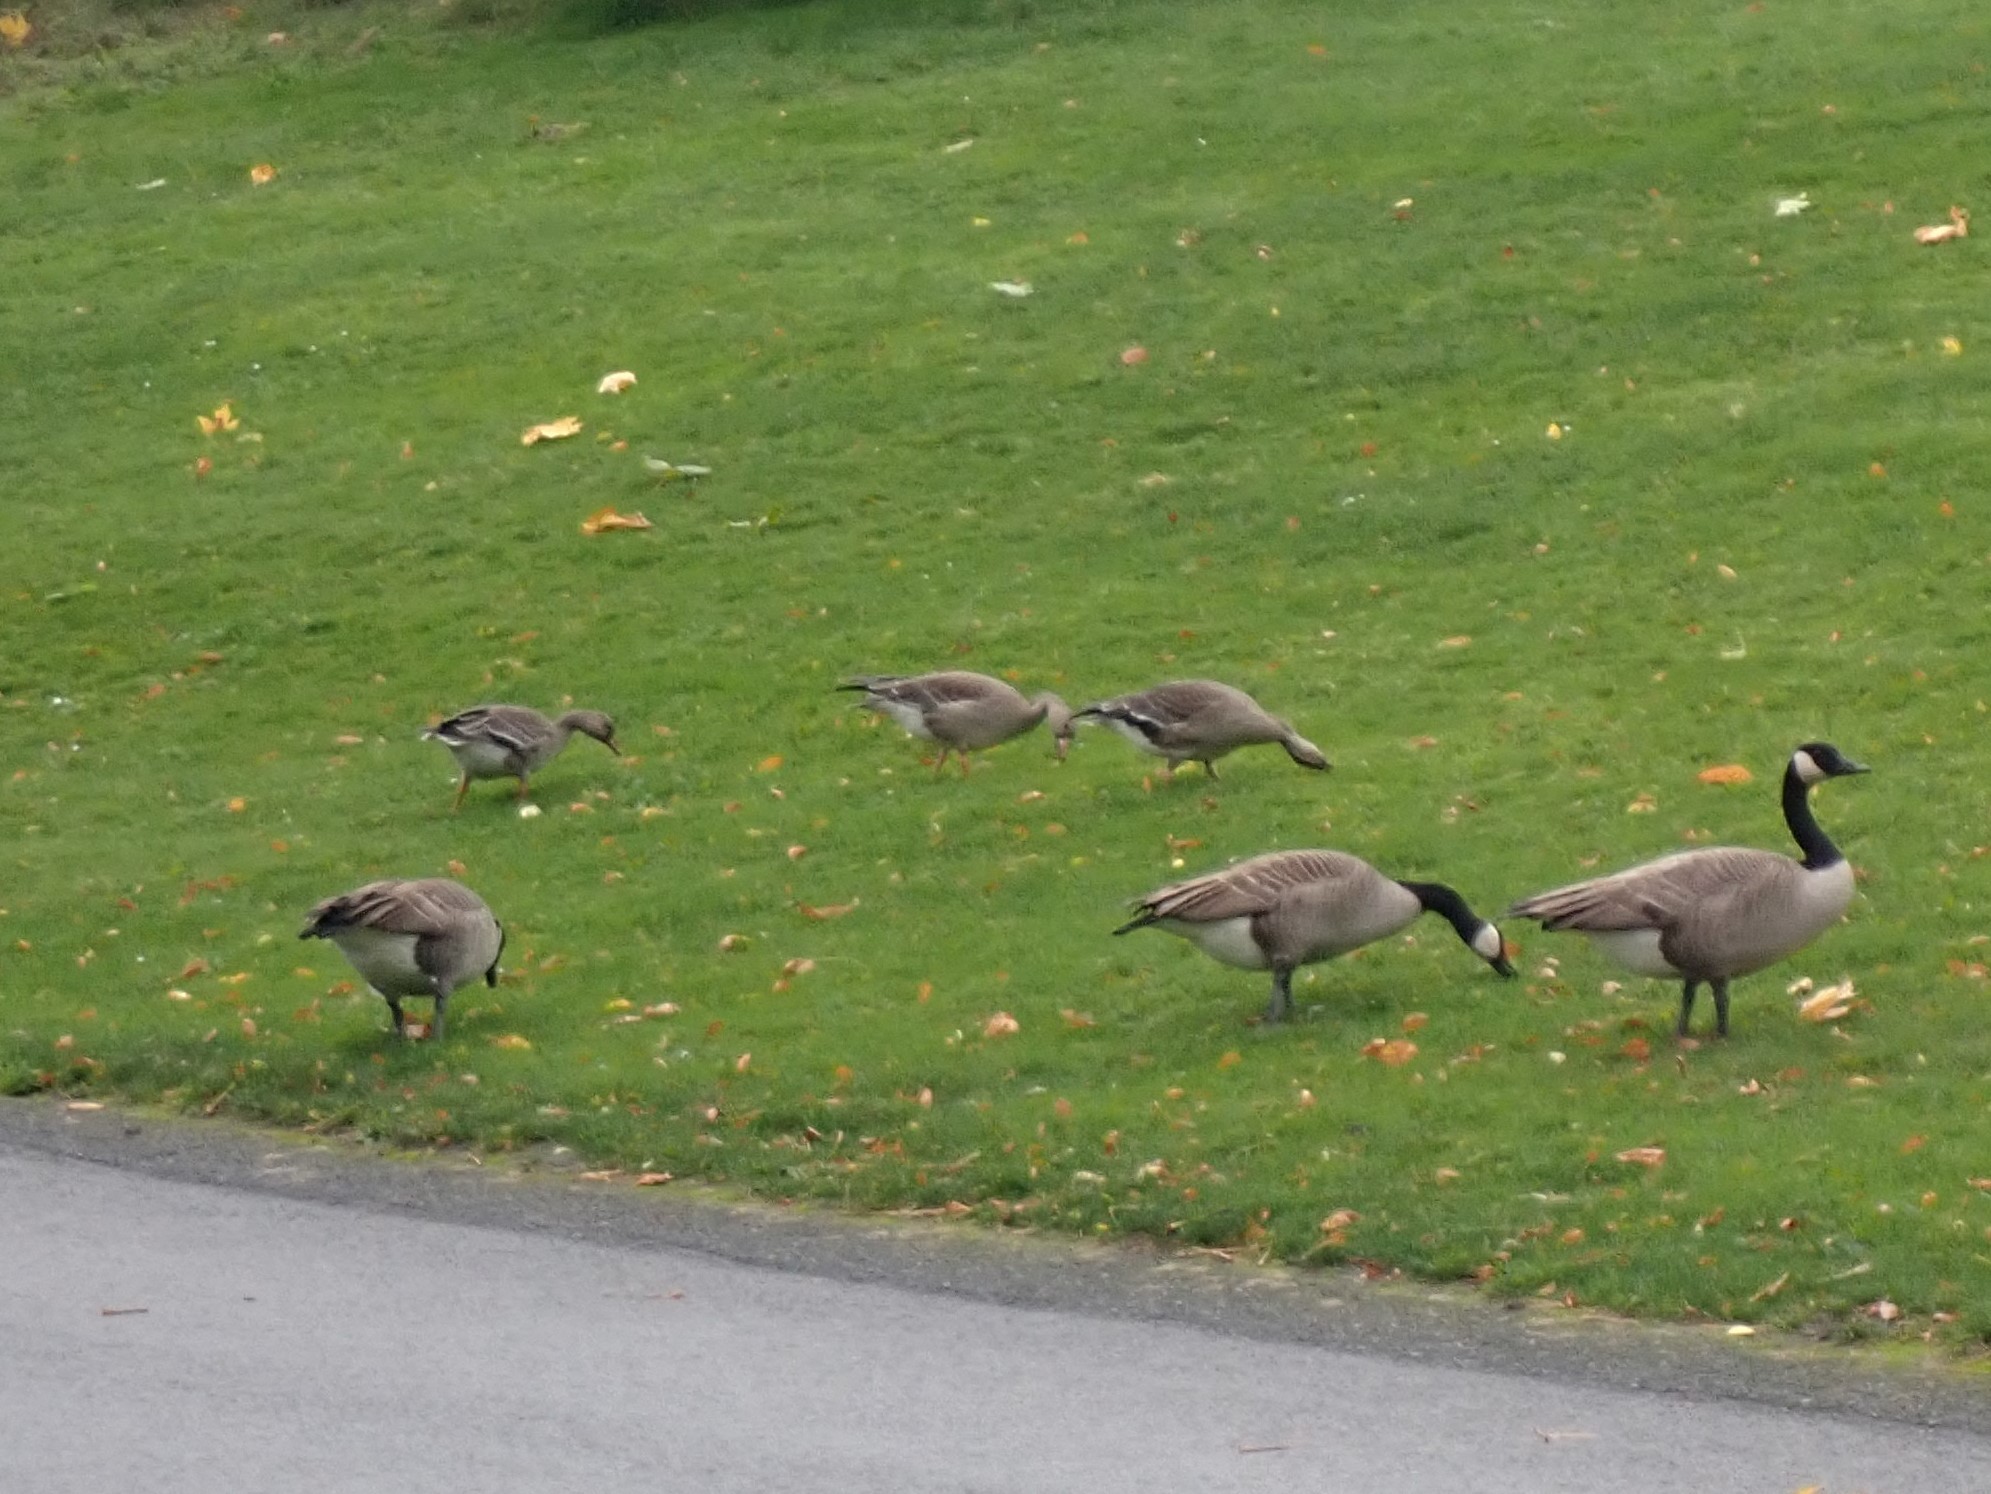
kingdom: Animalia
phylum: Chordata
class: Aves
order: Anseriformes
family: Anatidae
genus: Anser
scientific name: Anser albifrons
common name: Greater white-fronted goose
